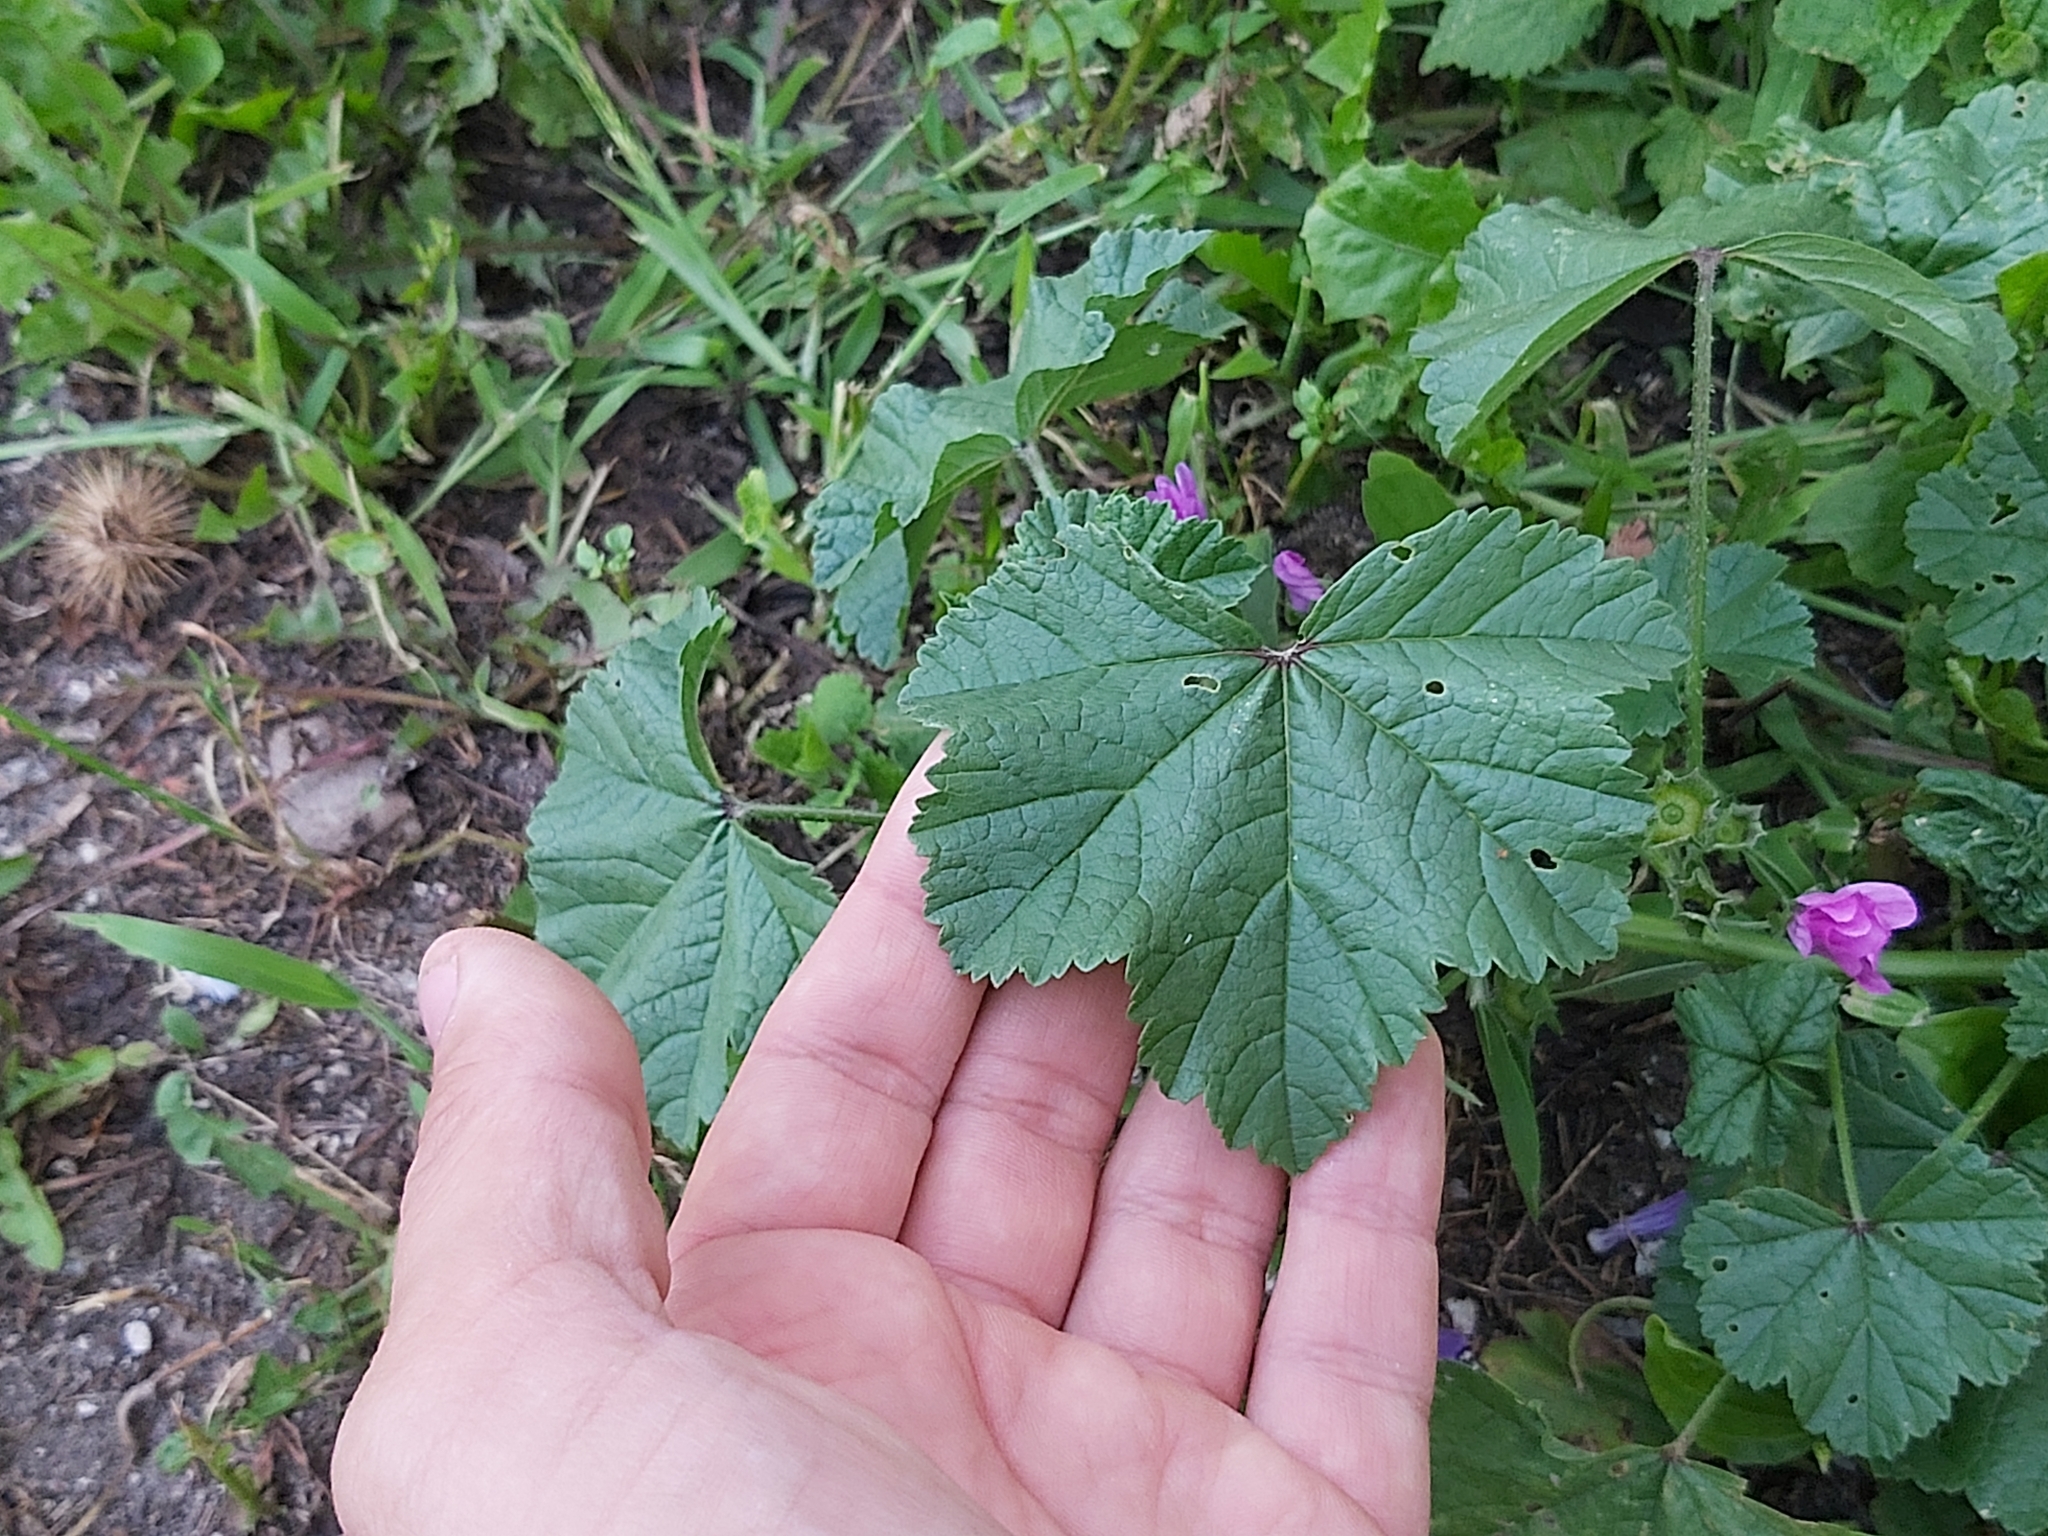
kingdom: Plantae
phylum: Tracheophyta
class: Magnoliopsida
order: Malvales
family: Malvaceae
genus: Malva
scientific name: Malva sylvestris
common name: Common mallow
